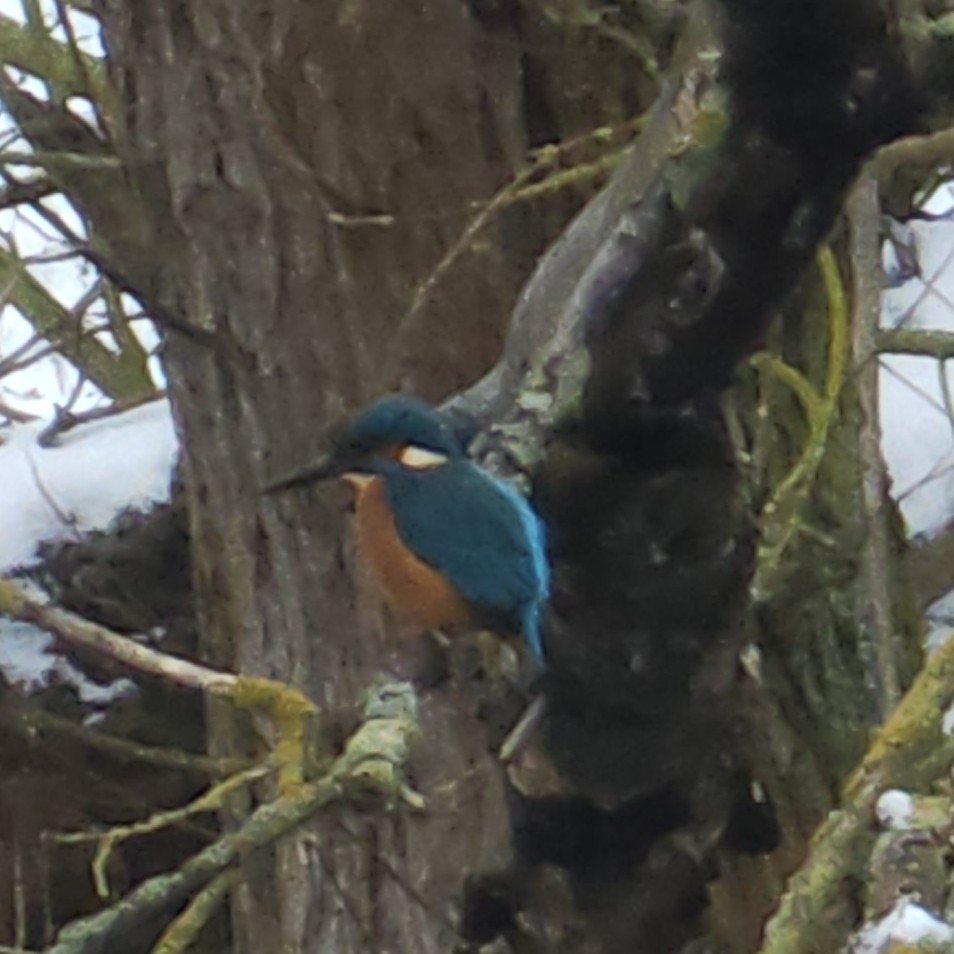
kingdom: Animalia
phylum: Chordata
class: Aves
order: Coraciiformes
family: Alcedinidae
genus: Alcedo
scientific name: Alcedo atthis
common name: Common kingfisher
